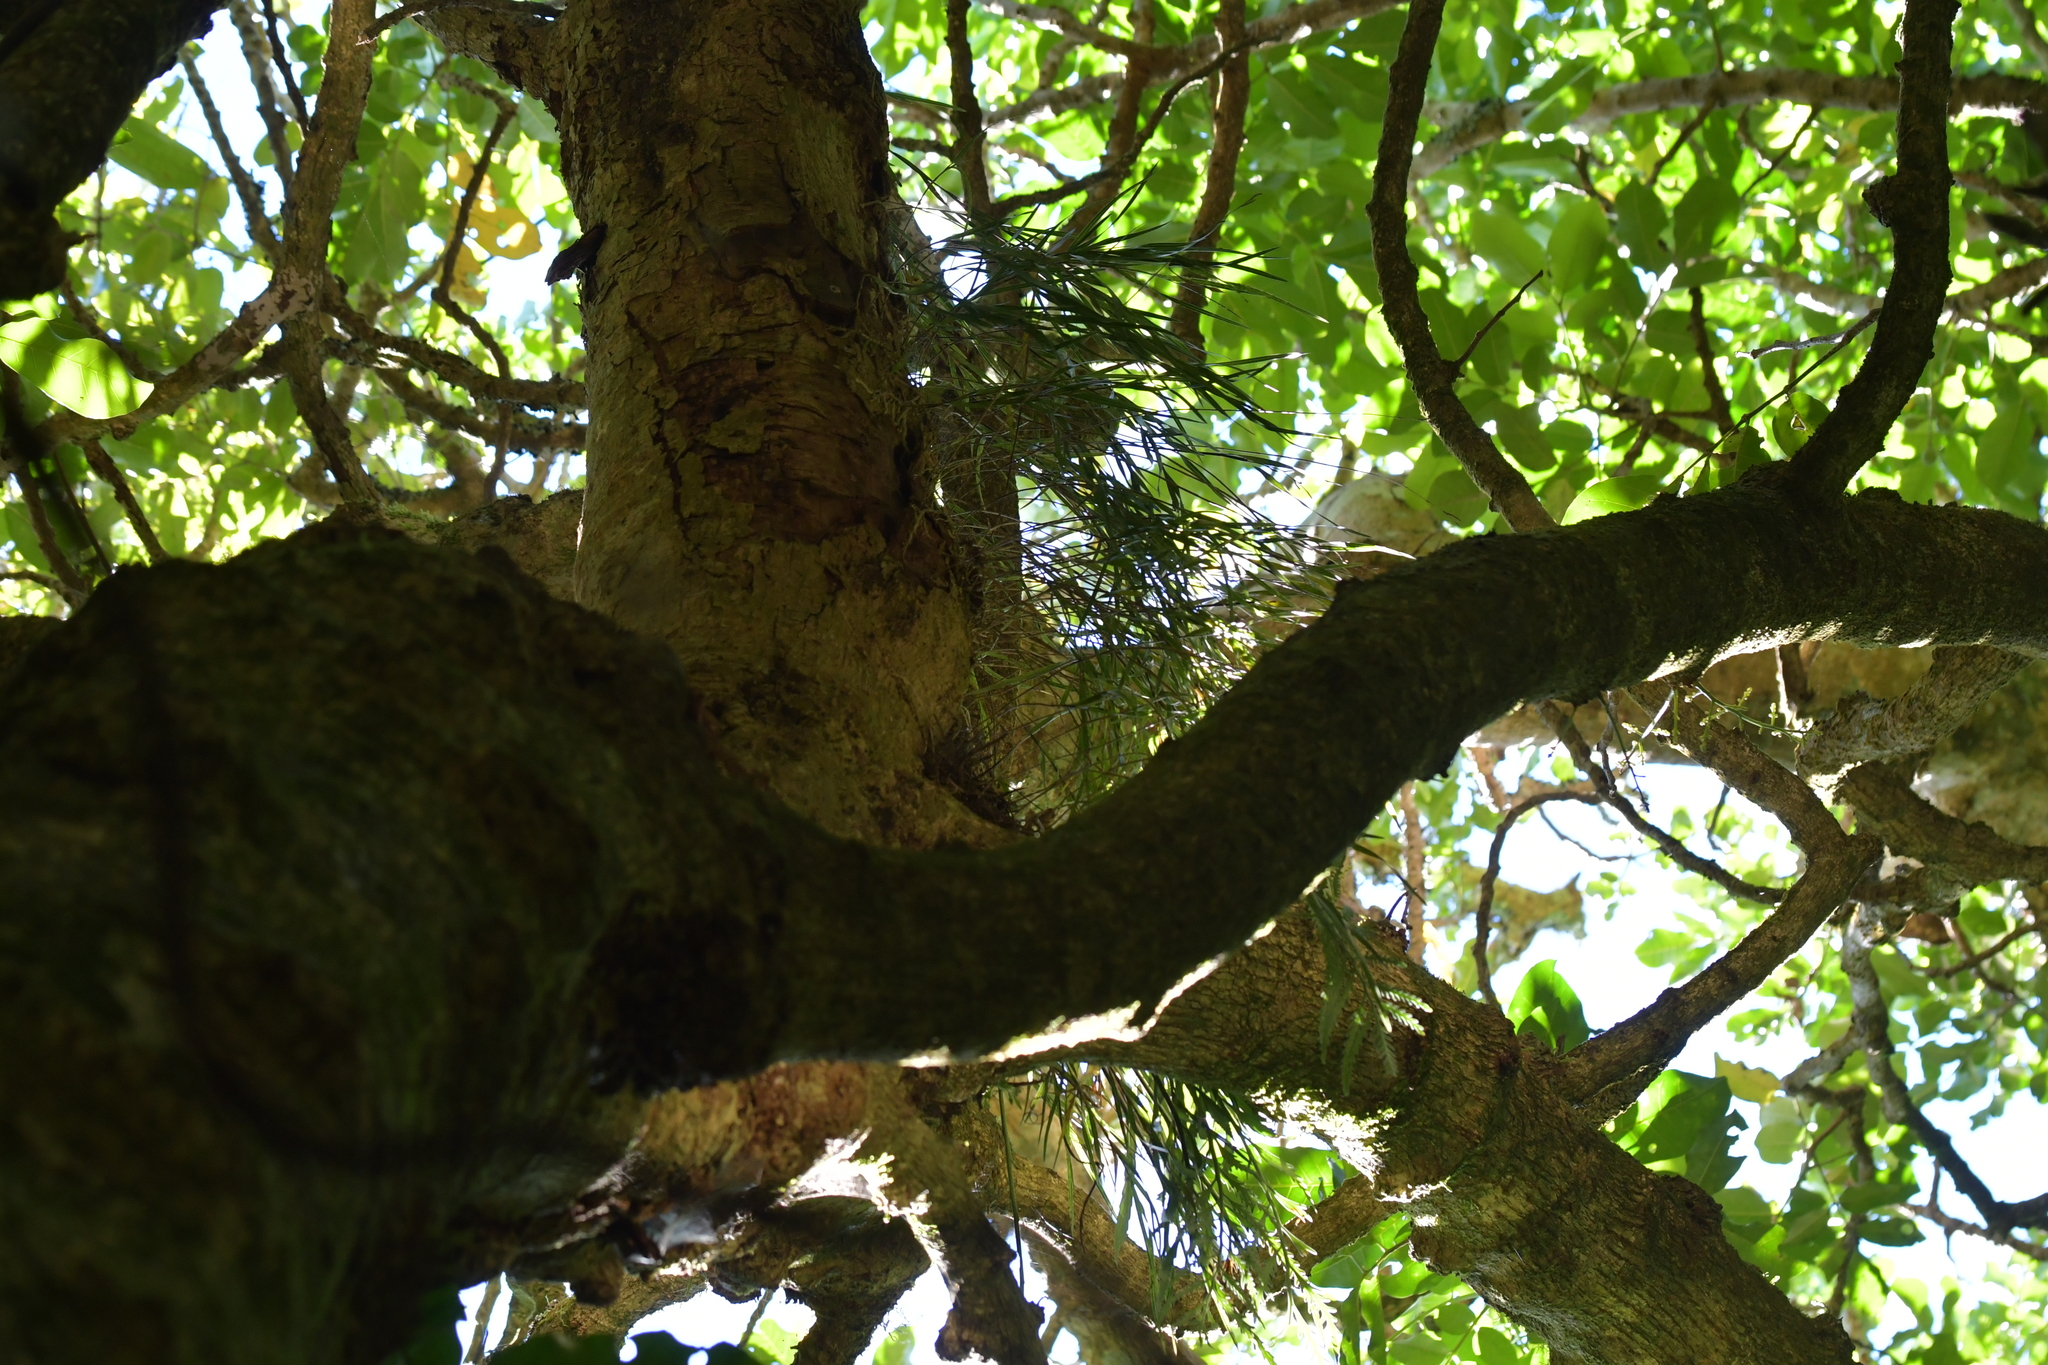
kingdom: Plantae
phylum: Tracheophyta
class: Liliopsida
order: Asparagales
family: Orchidaceae
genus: Earina
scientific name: Earina mucronata
